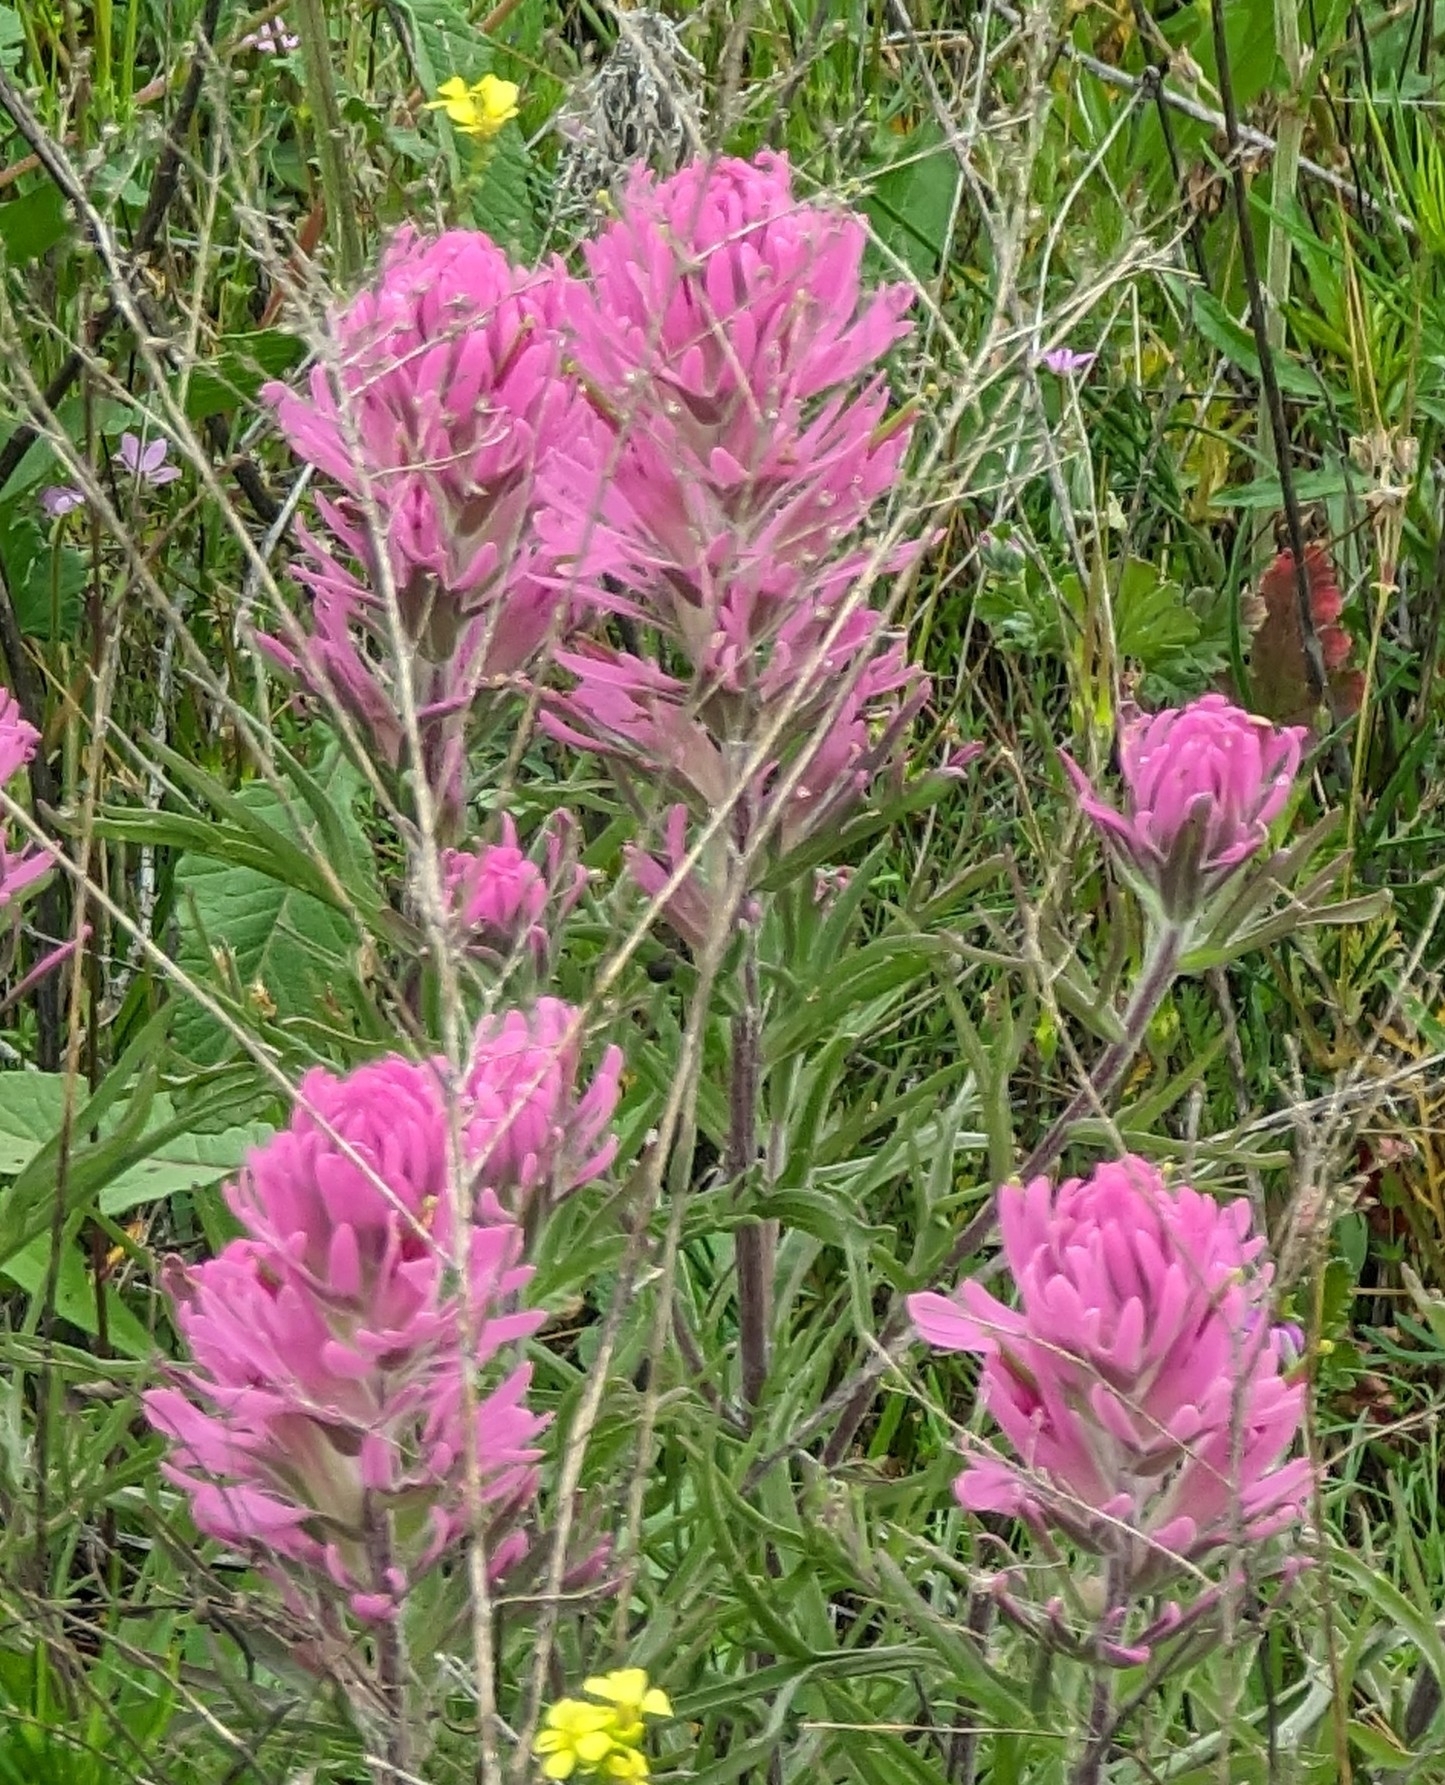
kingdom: Plantae
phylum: Tracheophyta
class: Magnoliopsida
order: Lamiales
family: Orobanchaceae
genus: Castilleja
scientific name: Castilleja purpurea
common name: Plains paintbrush
